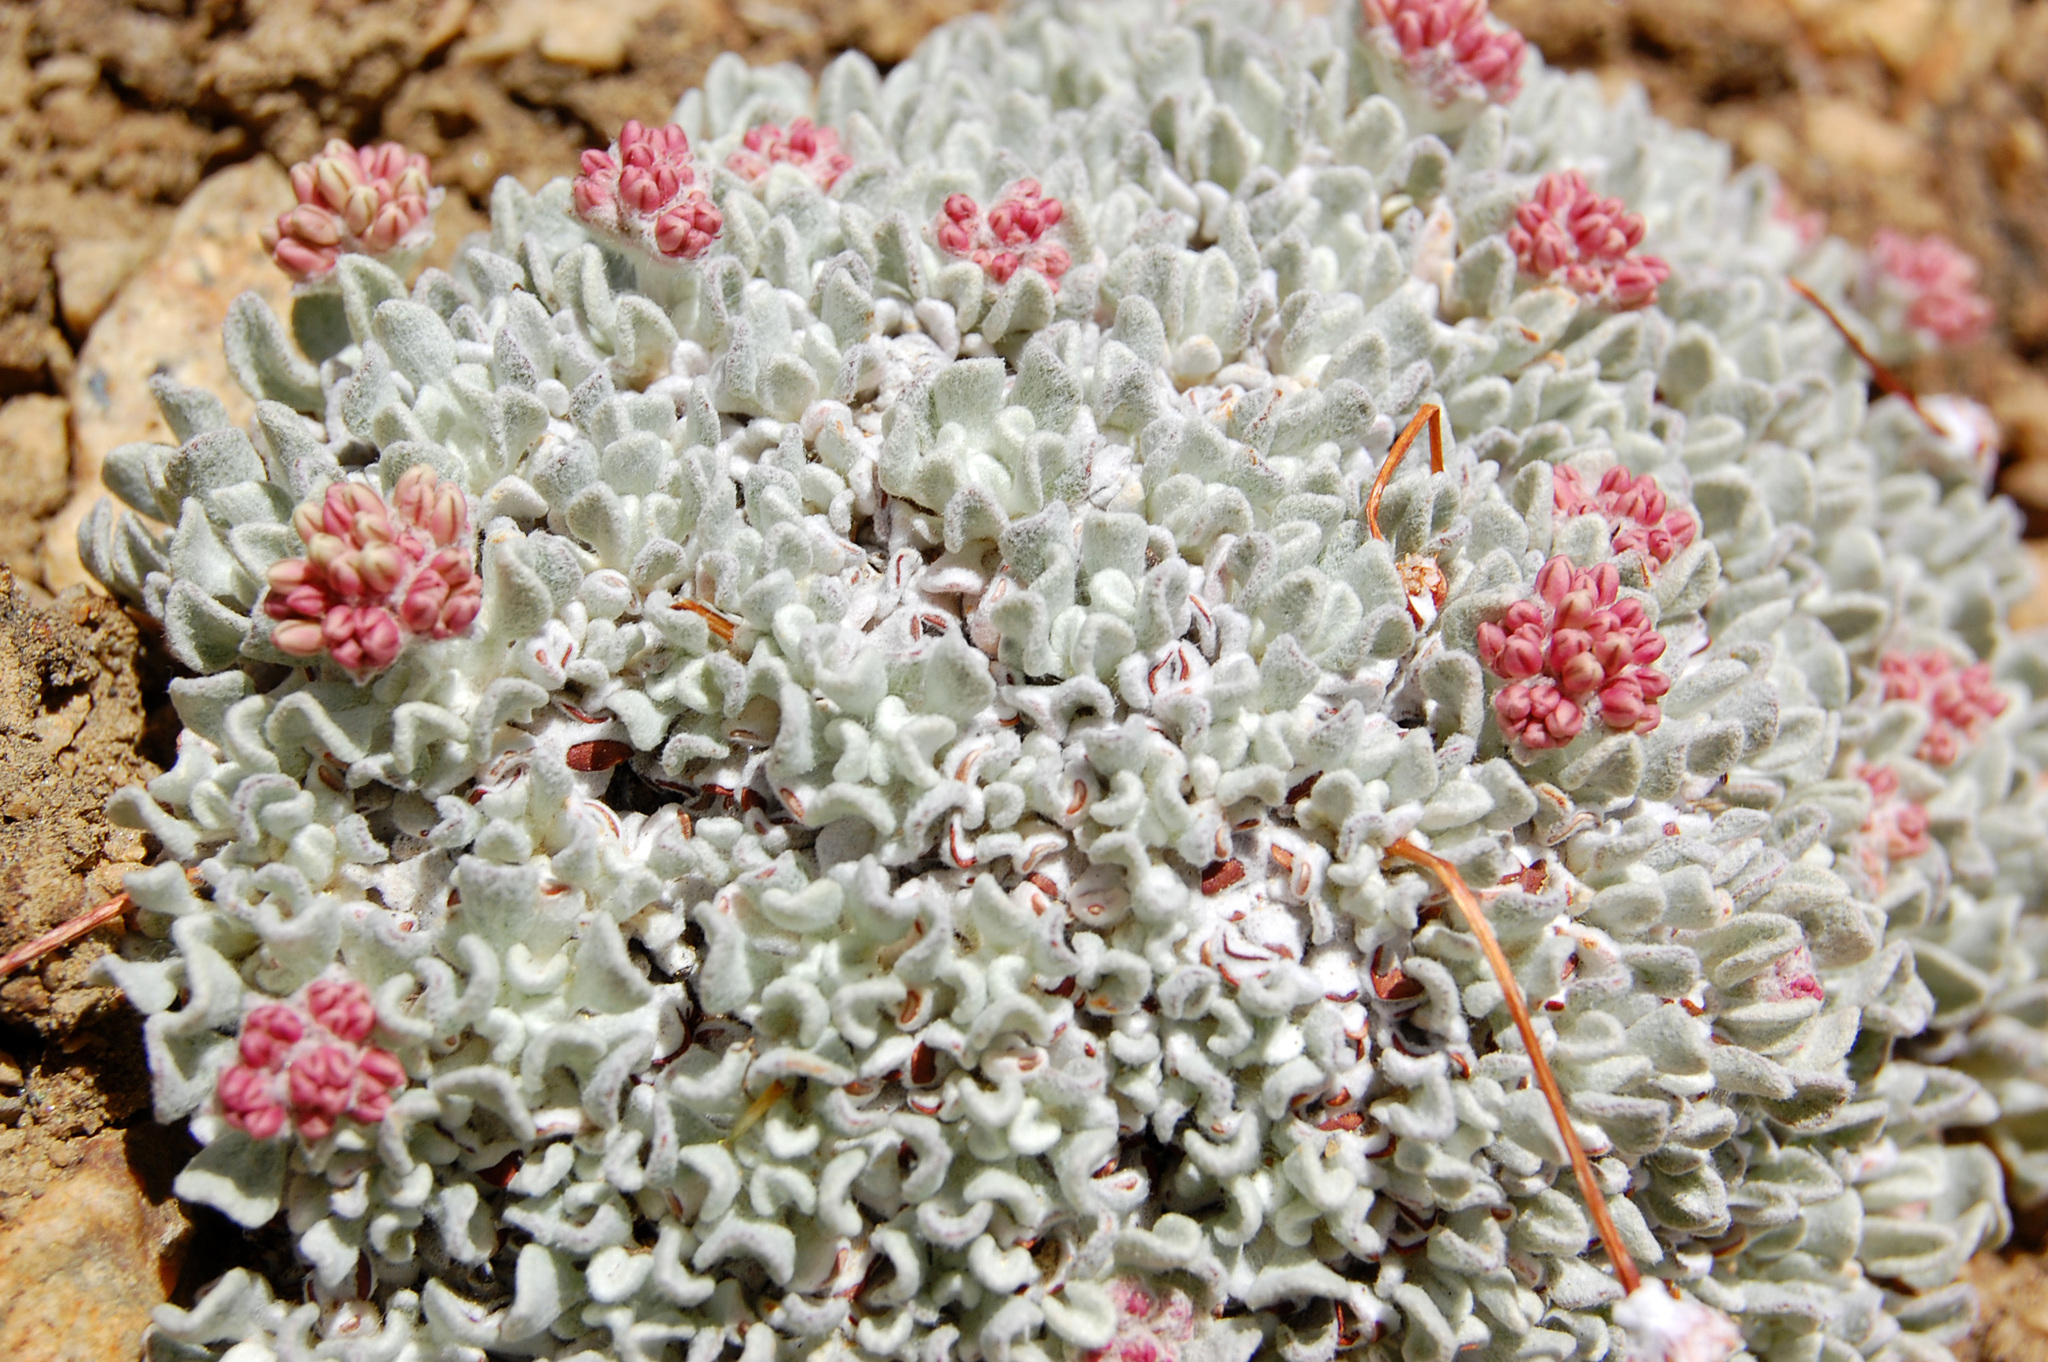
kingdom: Plantae
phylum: Tracheophyta
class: Magnoliopsida
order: Caryophyllales
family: Polygonaceae
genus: Eriogonum
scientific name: Eriogonum ovalifolium
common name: Cushion buckwheat
